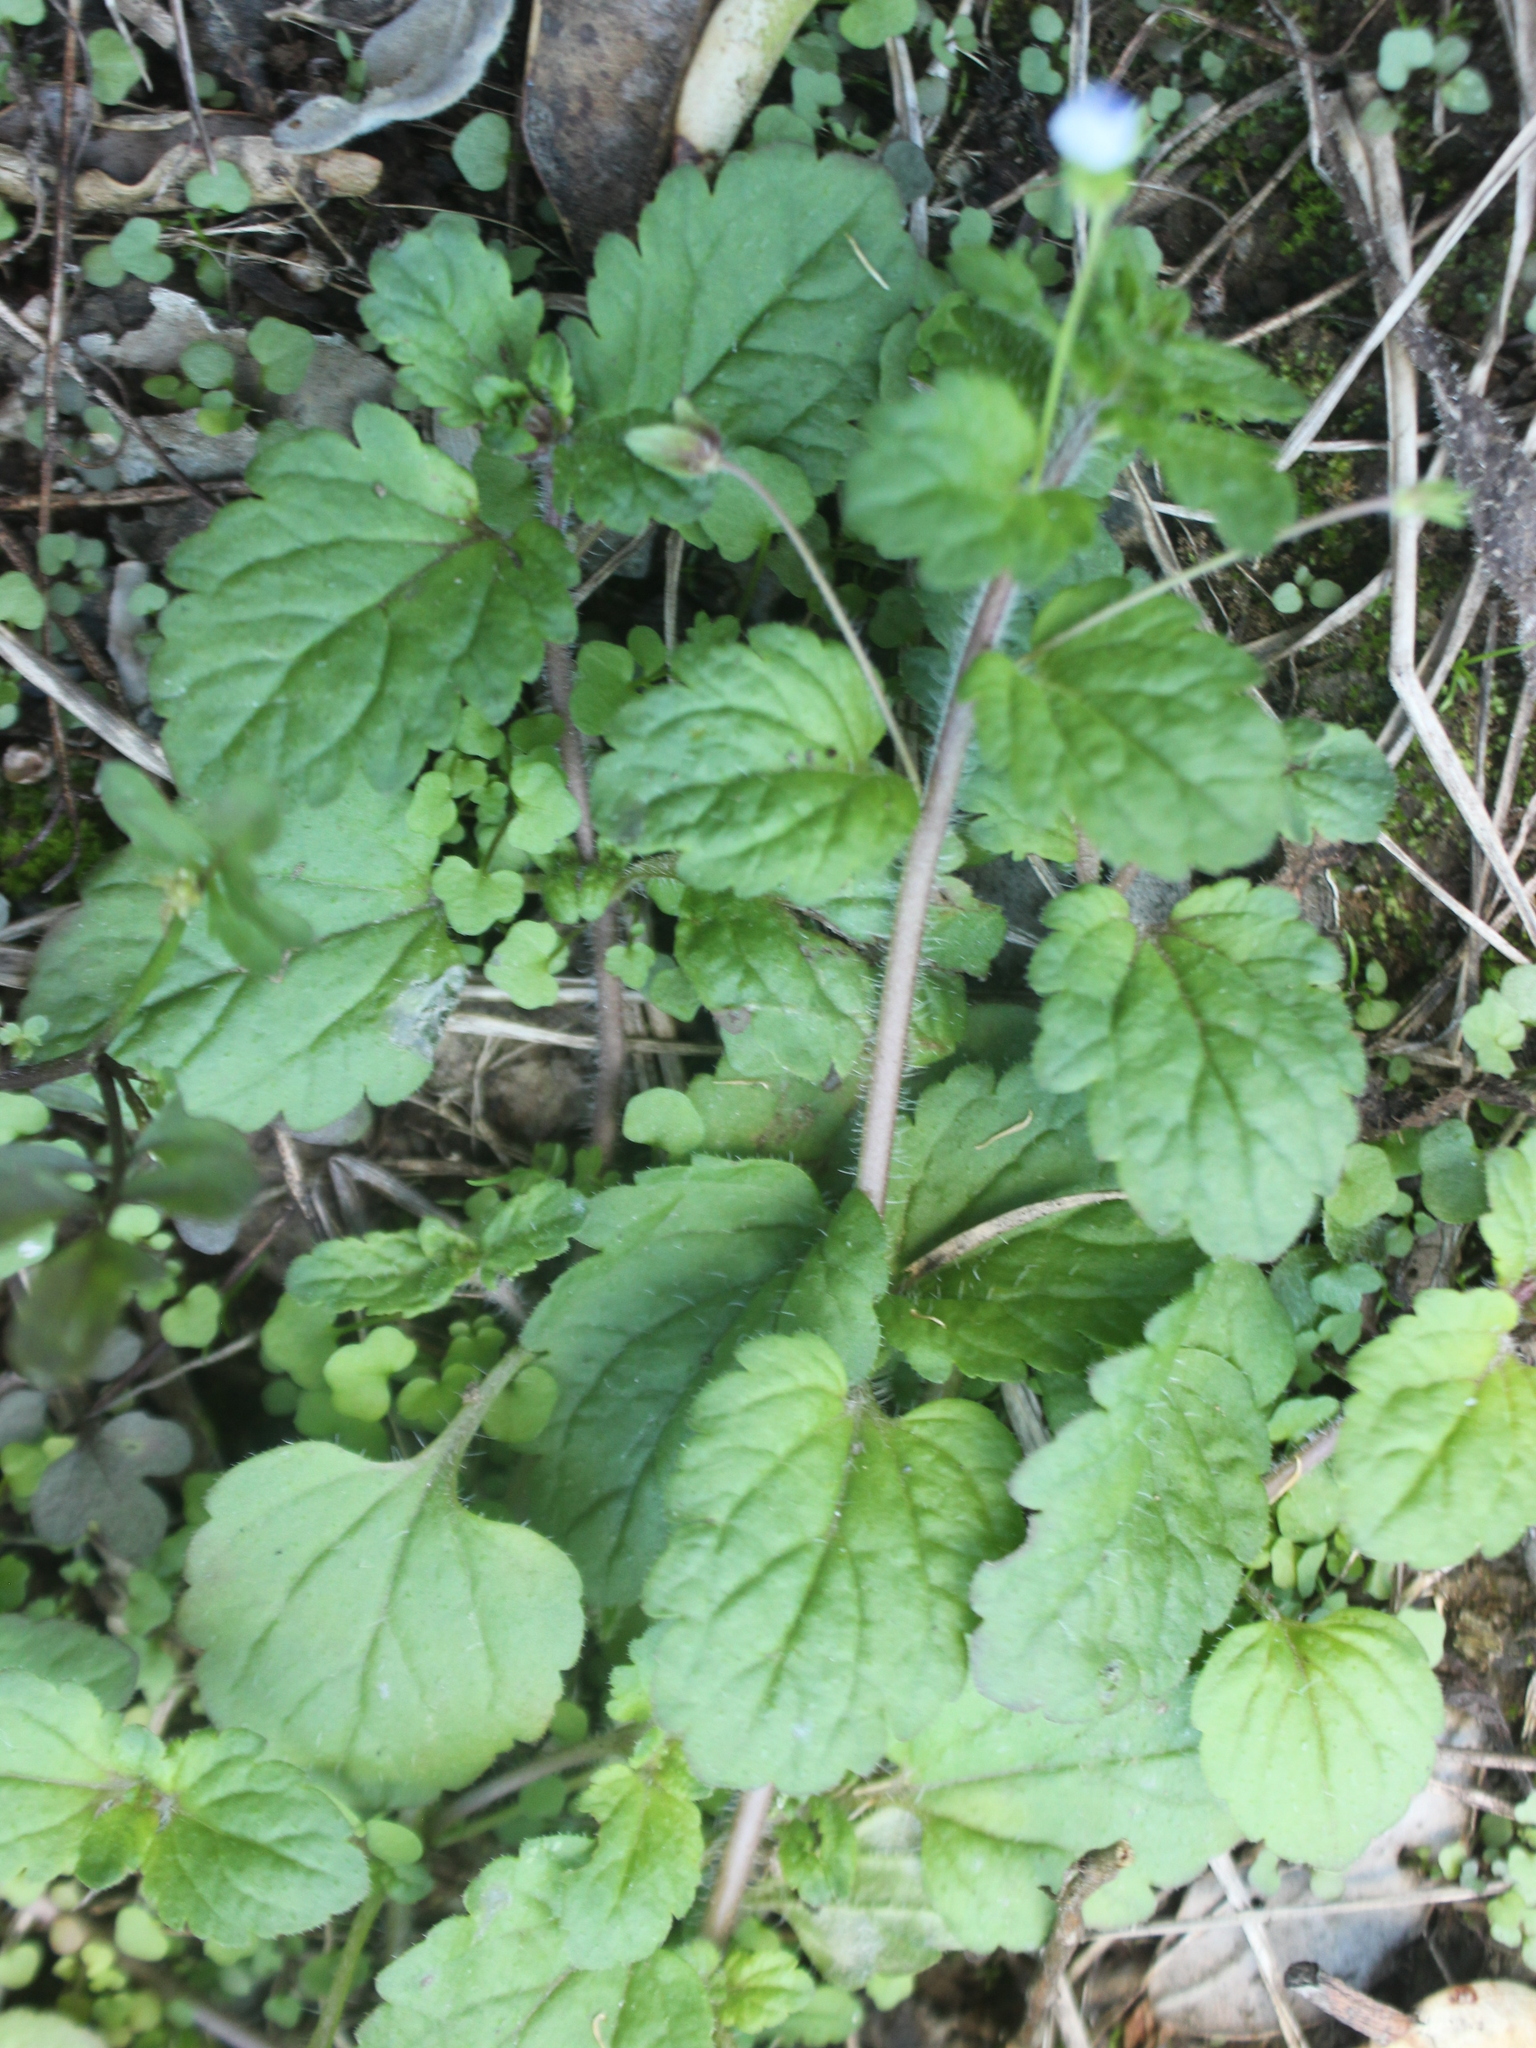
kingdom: Plantae
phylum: Tracheophyta
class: Magnoliopsida
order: Lamiales
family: Plantaginaceae
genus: Veronica
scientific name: Veronica persica
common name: Common field-speedwell
